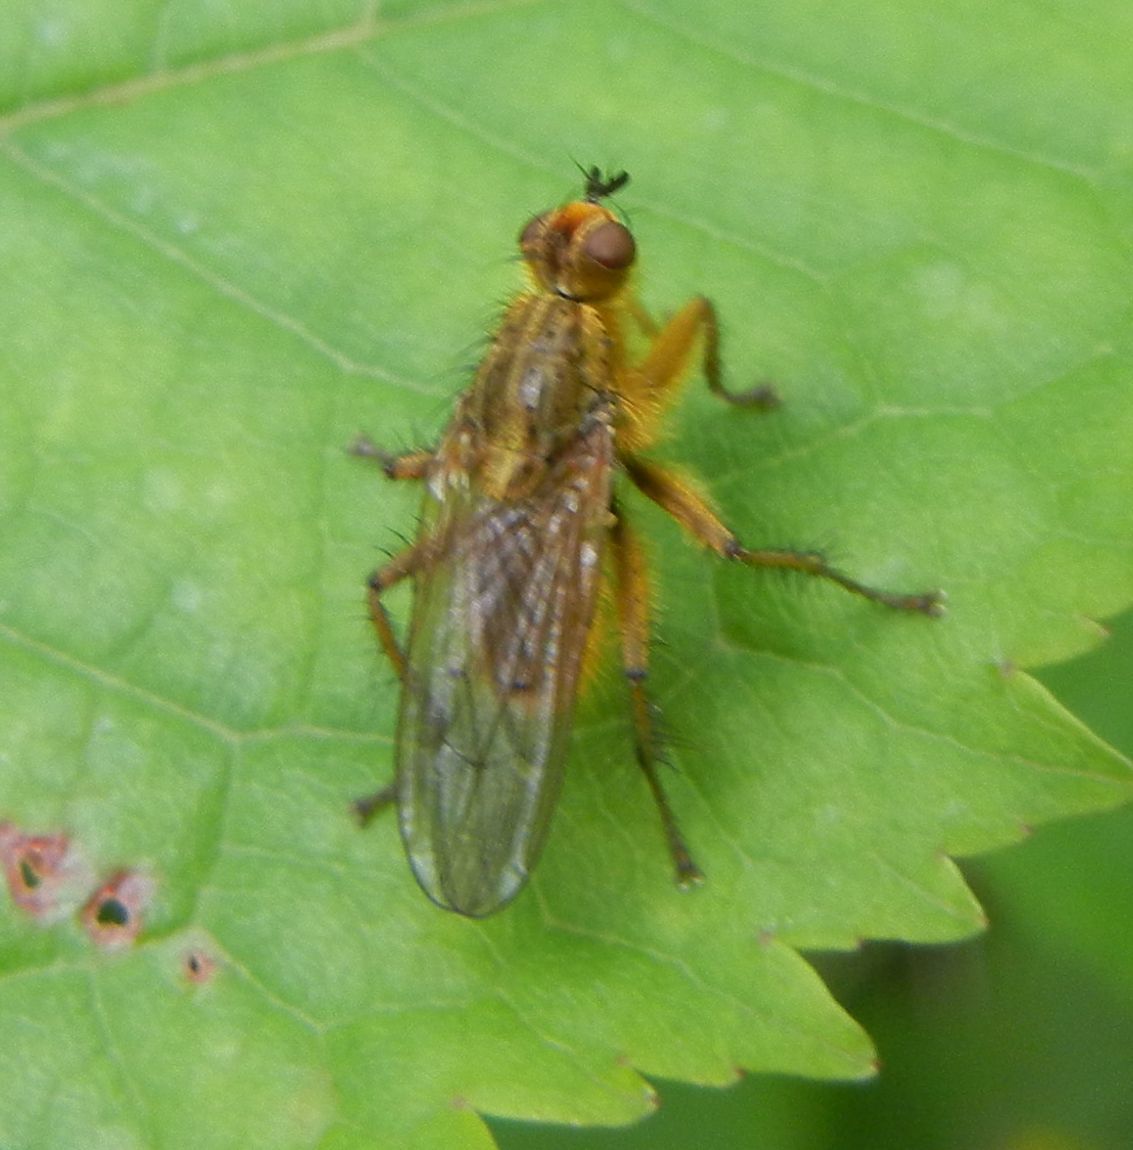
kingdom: Animalia
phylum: Arthropoda
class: Insecta
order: Diptera
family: Scathophagidae
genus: Scathophaga
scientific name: Scathophaga stercoraria
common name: Yellow dung fly
